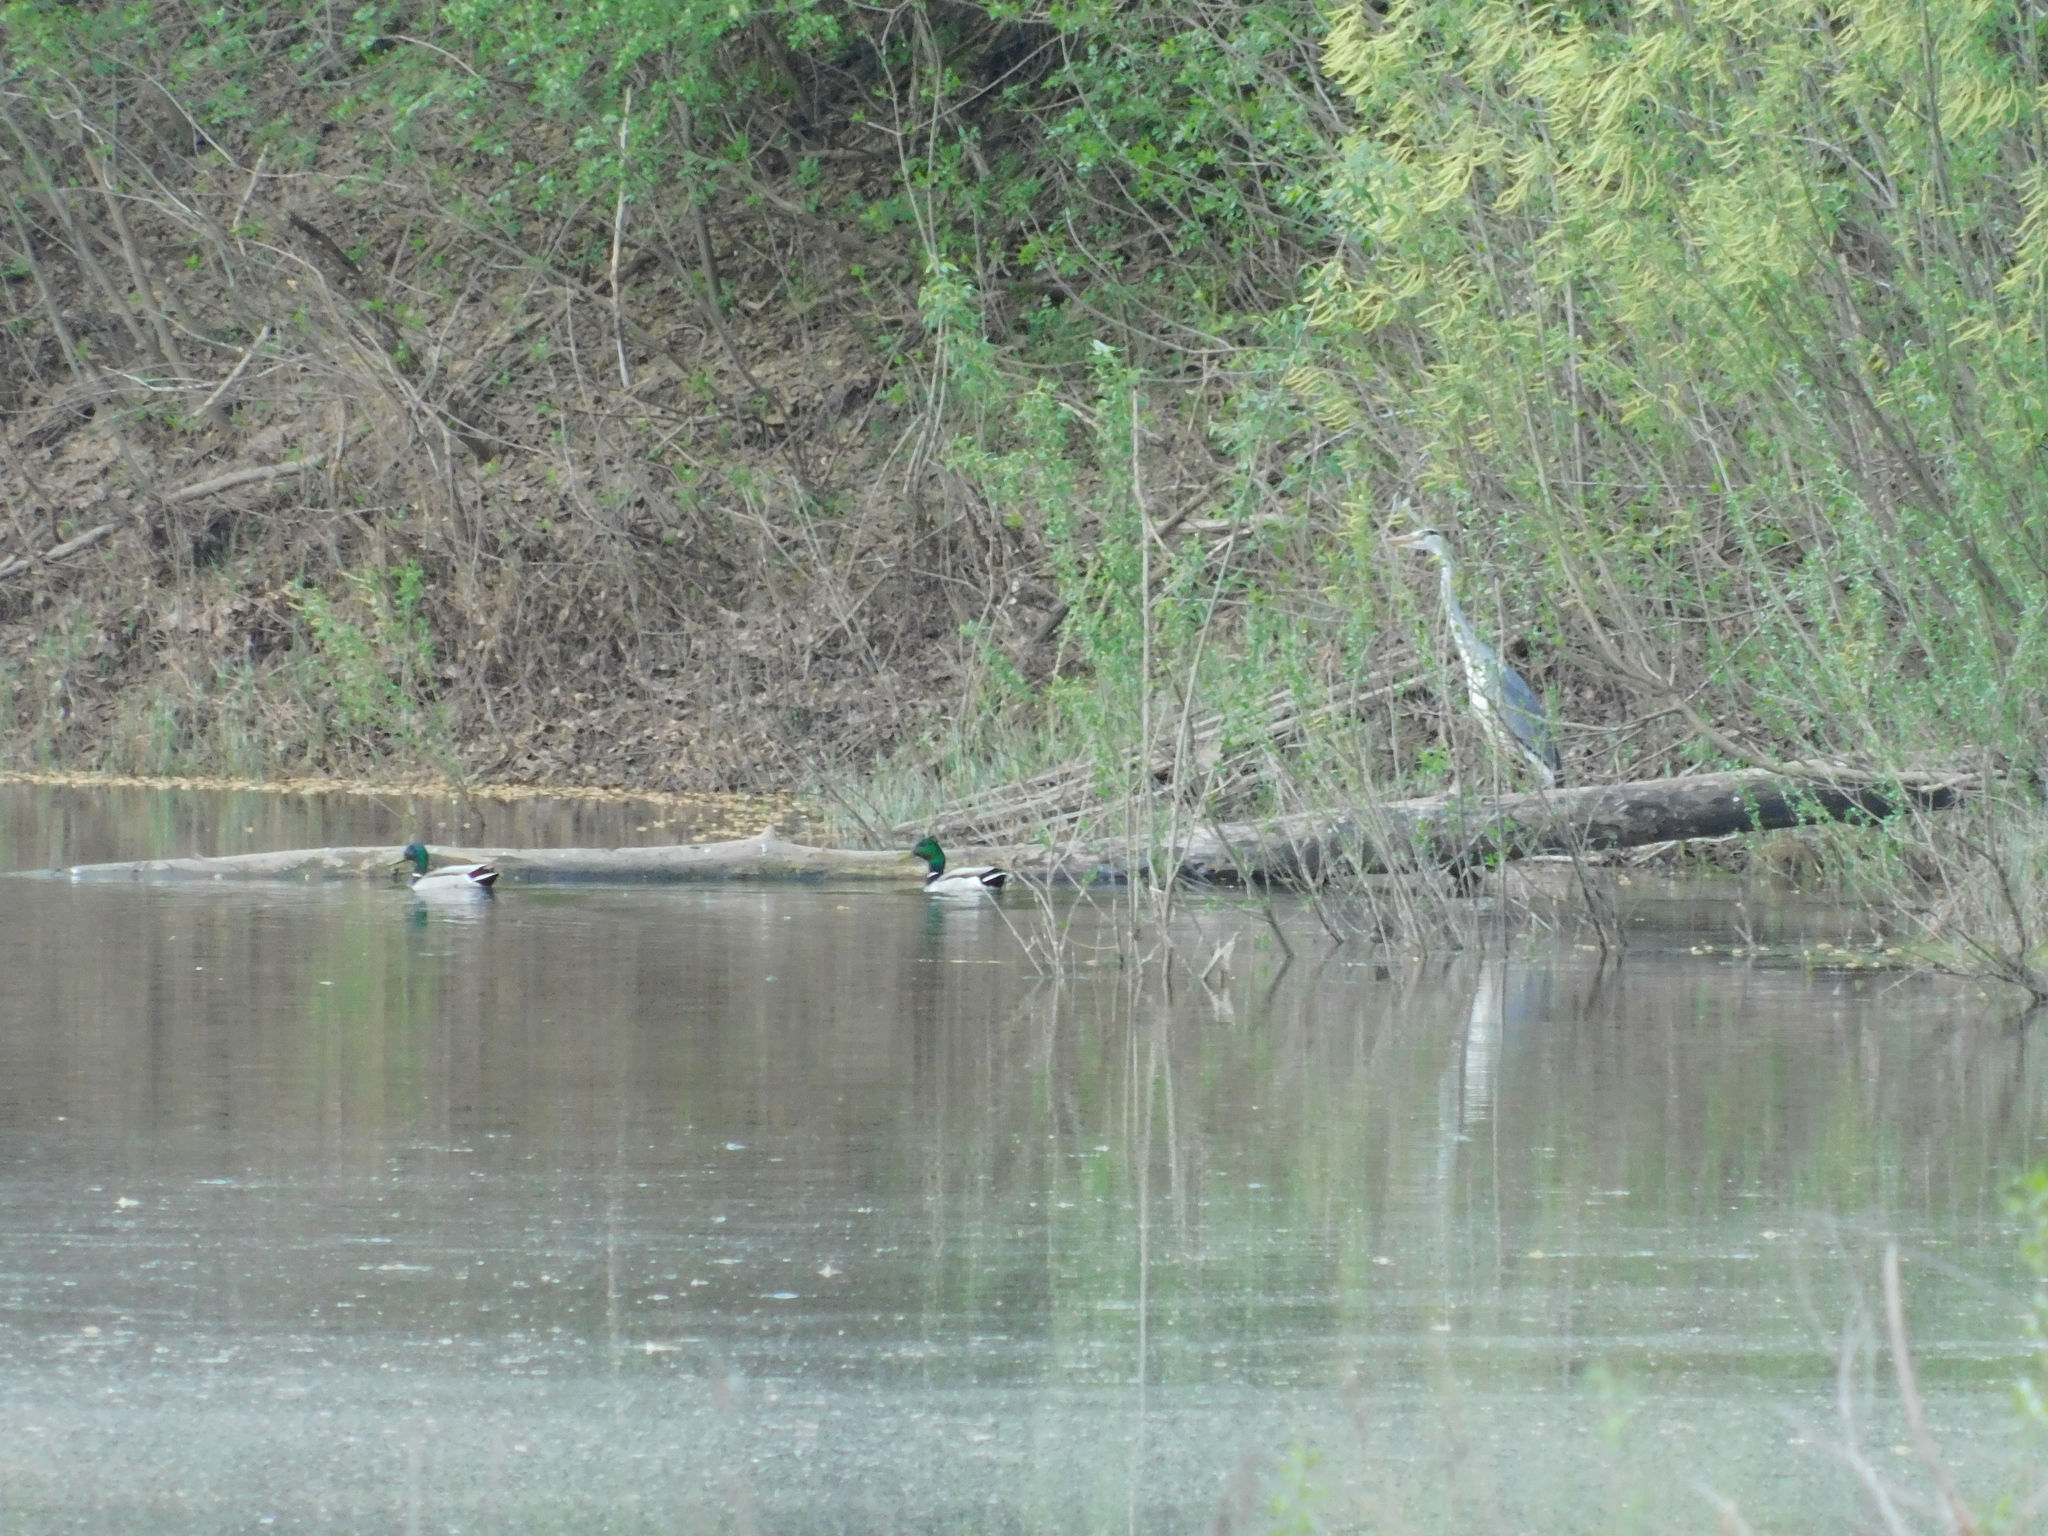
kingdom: Animalia
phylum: Chordata
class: Aves
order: Anseriformes
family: Anatidae
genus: Anas
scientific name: Anas platyrhynchos
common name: Mallard
